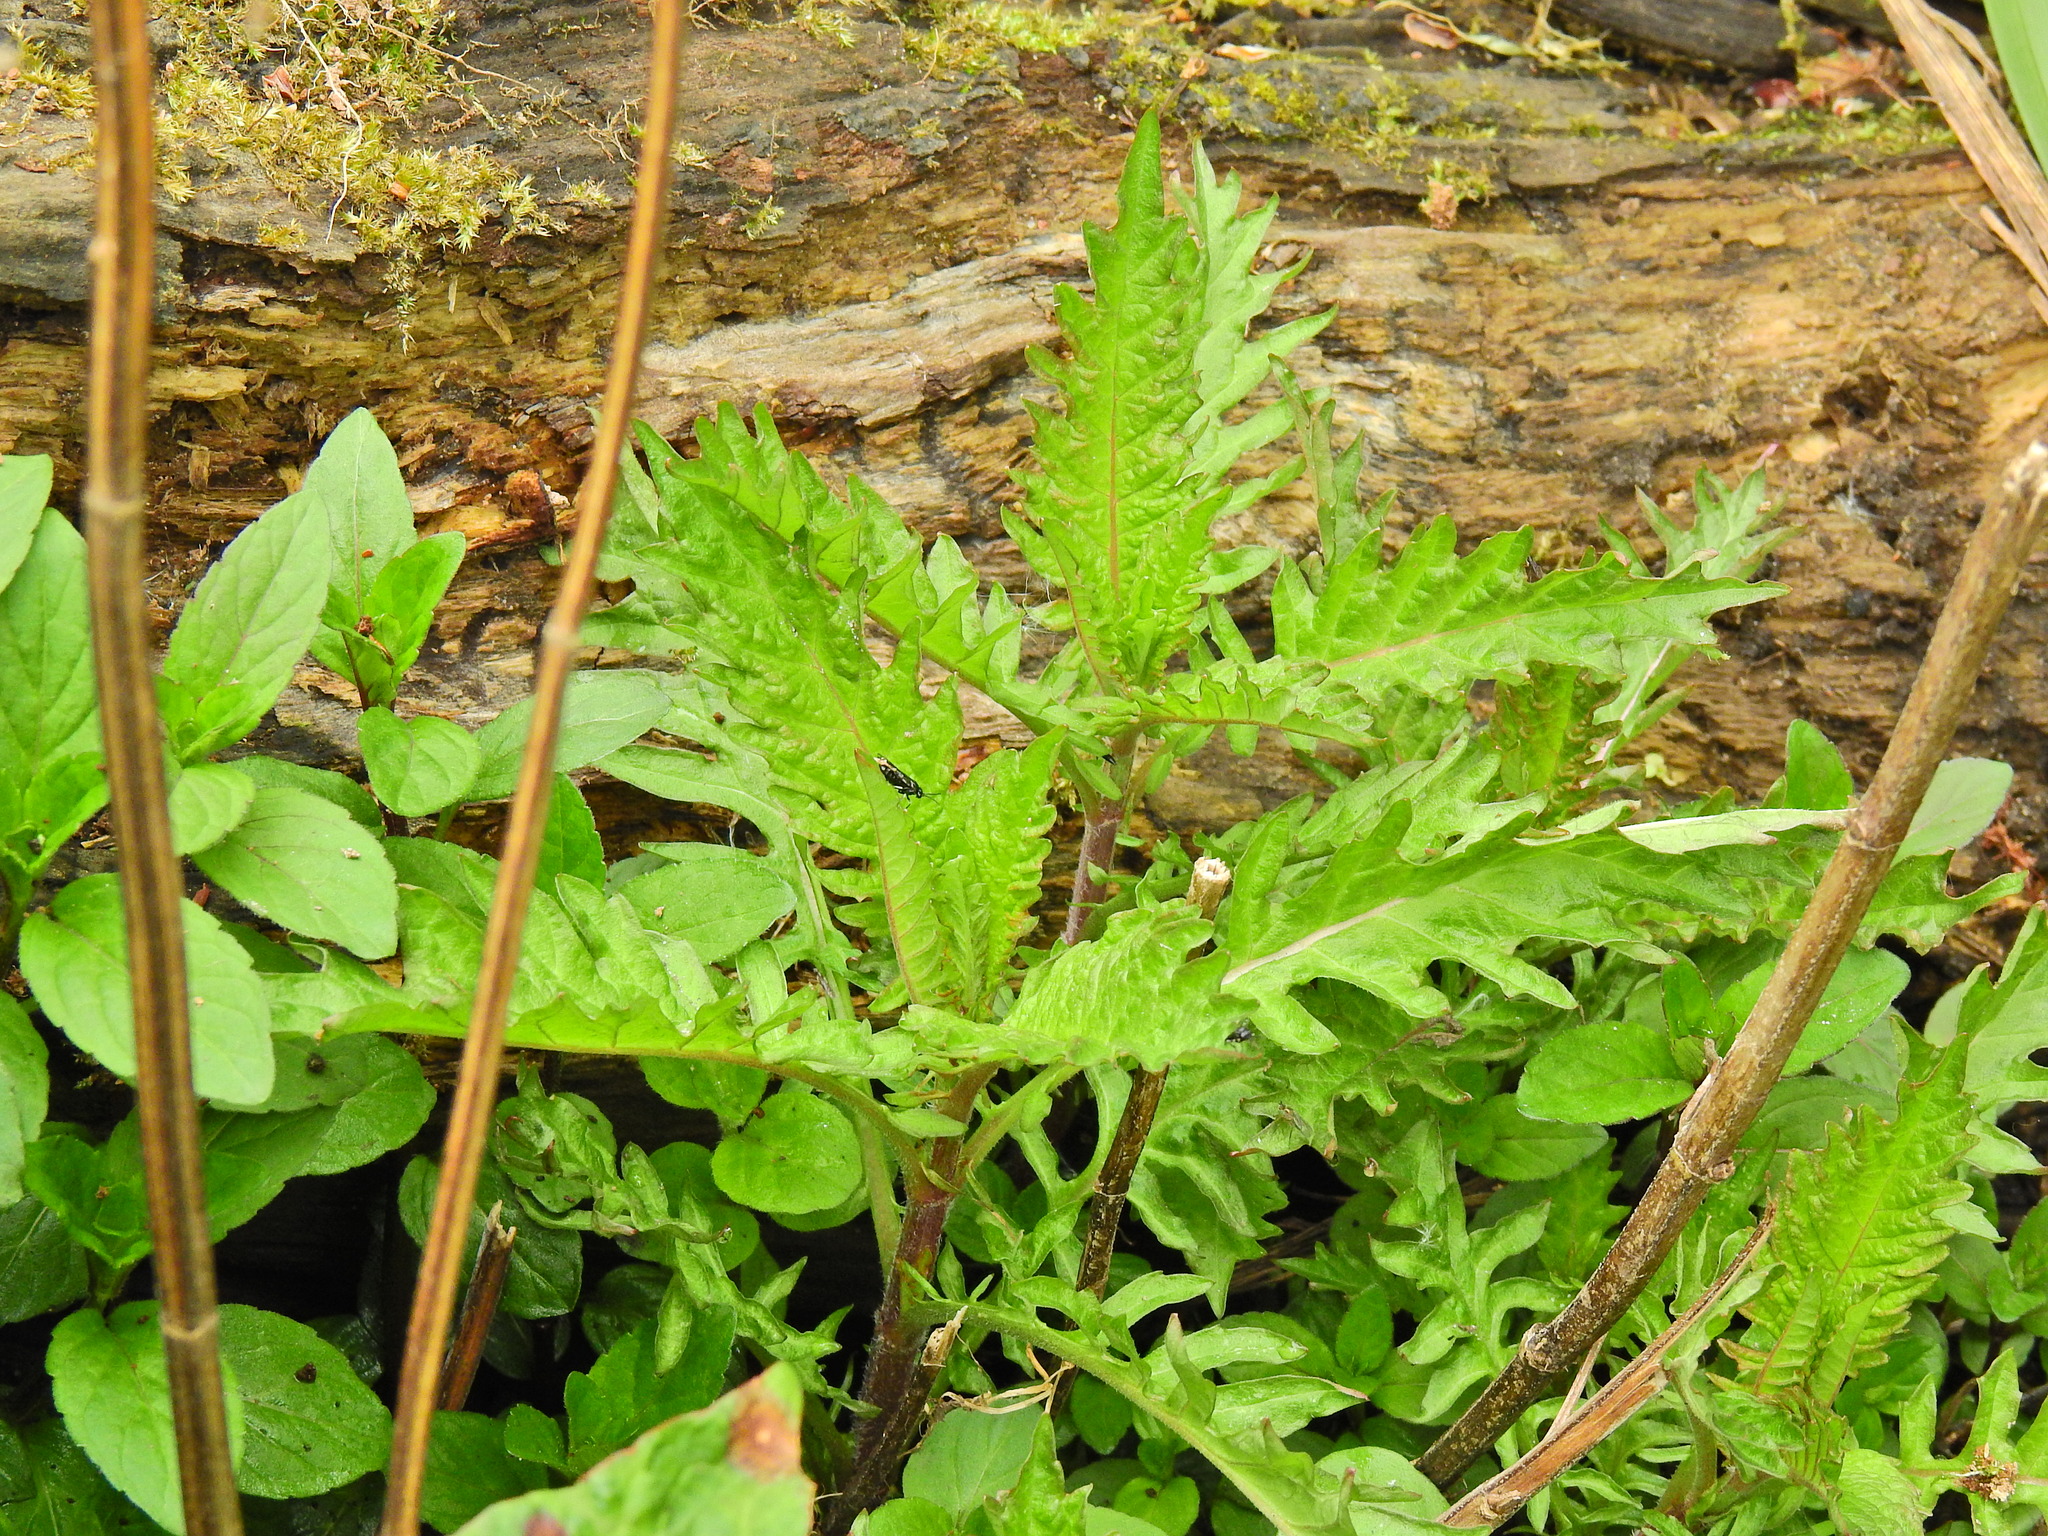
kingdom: Plantae
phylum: Tracheophyta
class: Magnoliopsida
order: Lamiales
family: Lamiaceae
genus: Lycopus
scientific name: Lycopus europaeus
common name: European bugleweed
